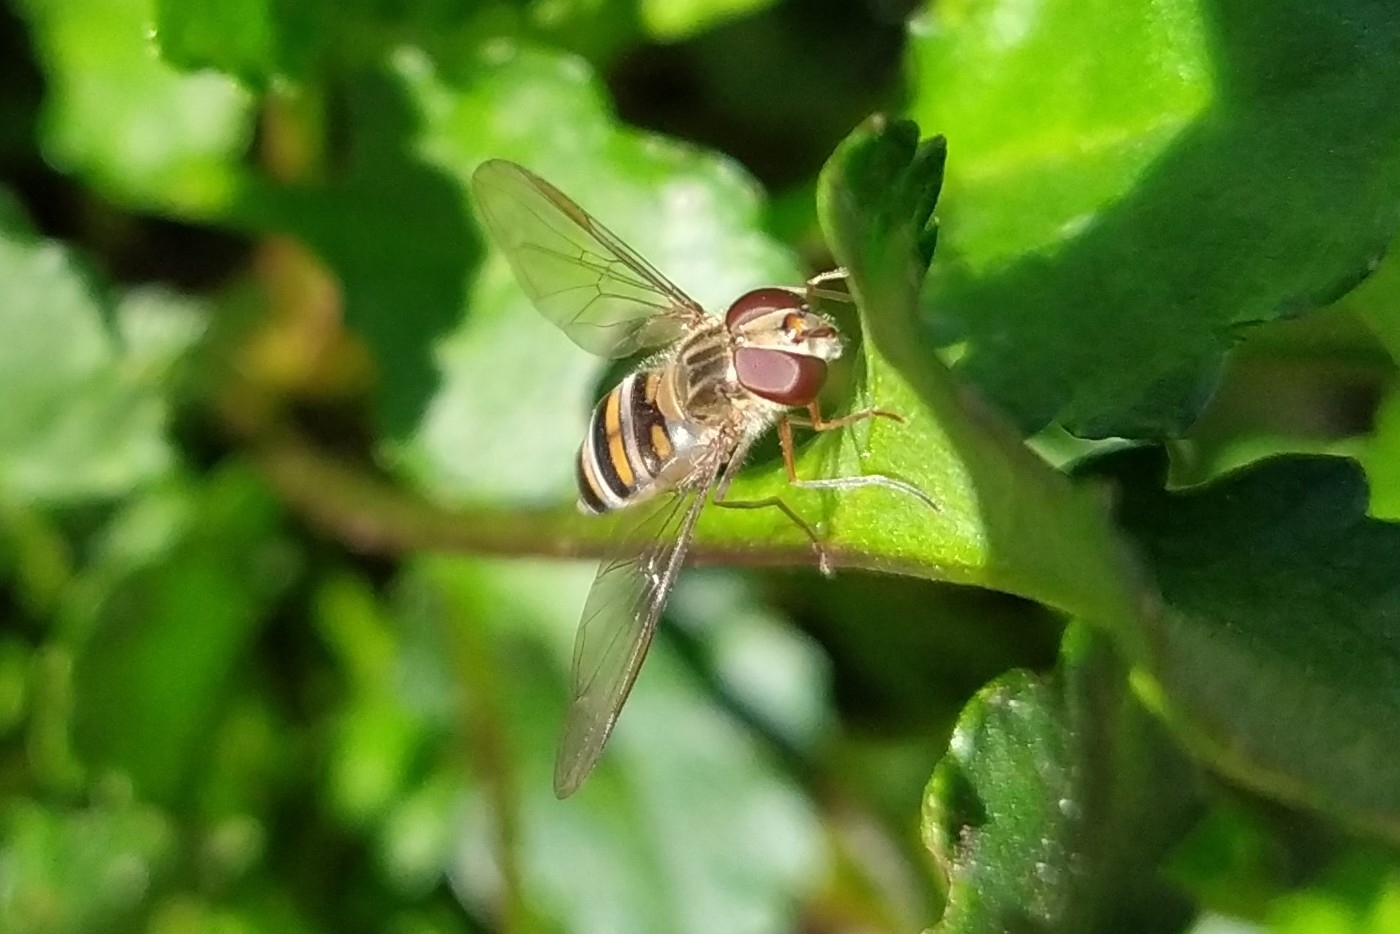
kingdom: Animalia
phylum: Arthropoda
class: Insecta
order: Diptera
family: Syrphidae
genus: Episyrphus
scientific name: Episyrphus balteatus
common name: Marmalade hoverfly
